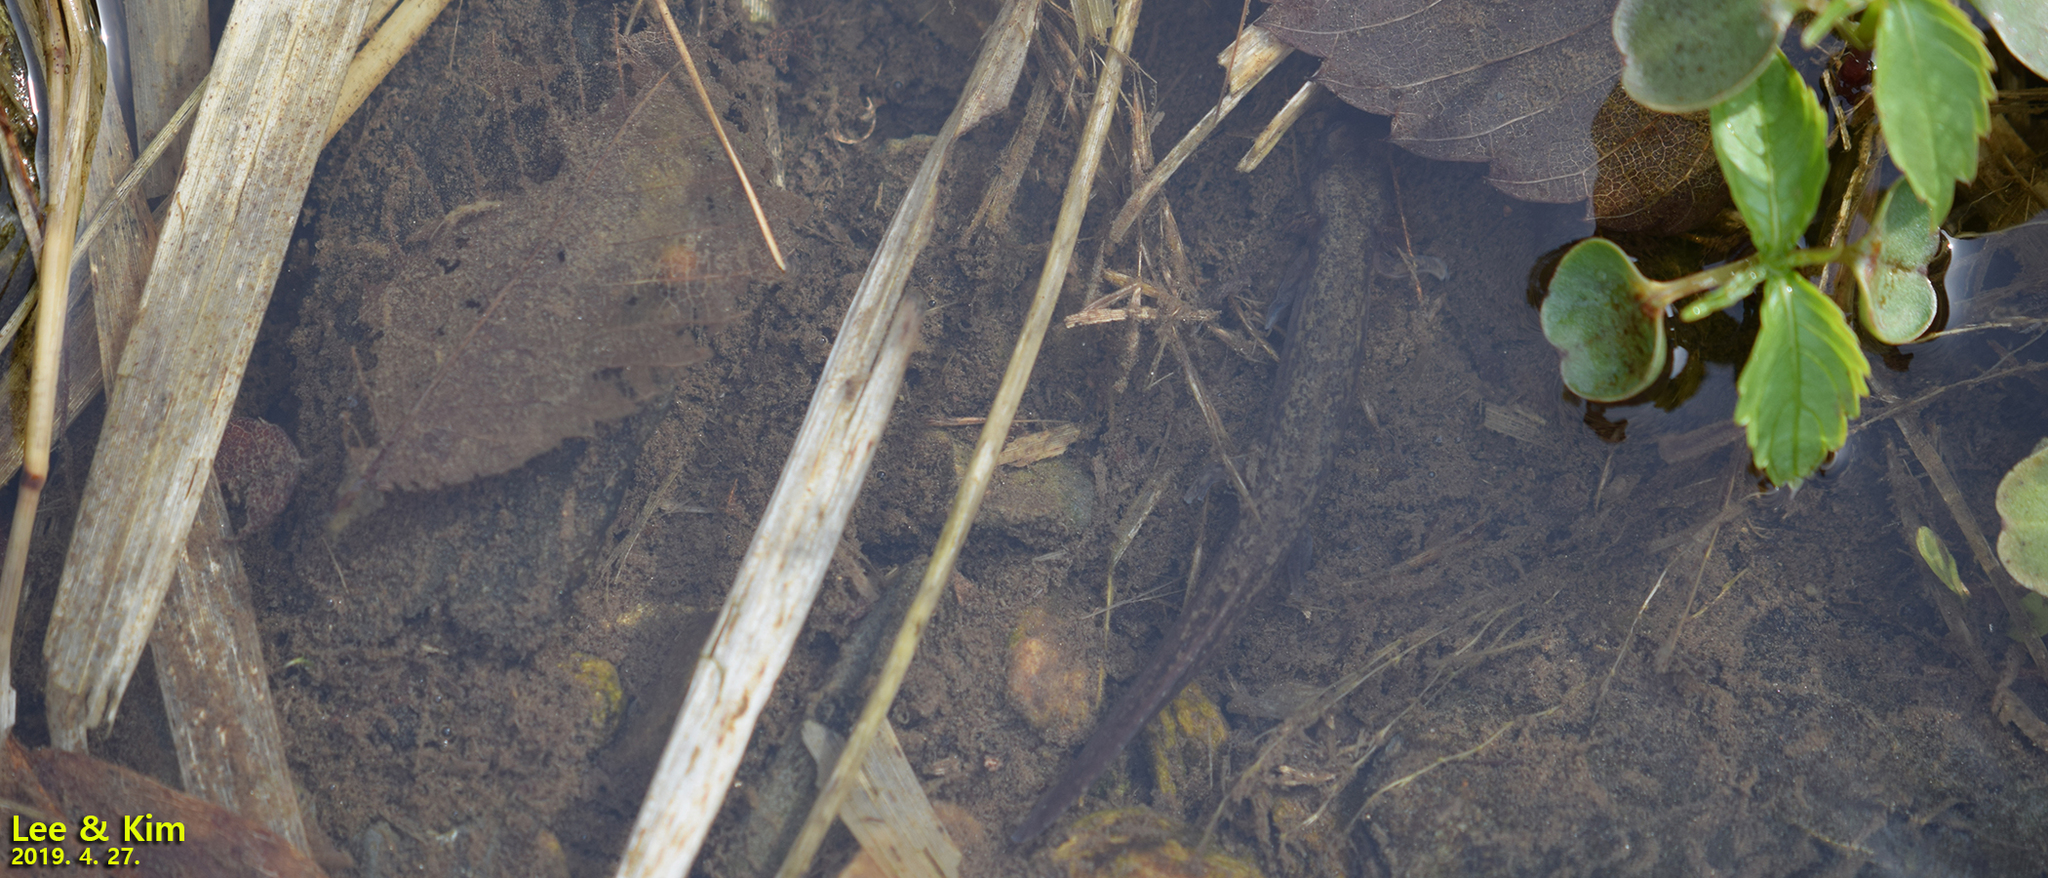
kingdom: Animalia
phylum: Chordata
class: Amphibia
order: Caudata
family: Hynobiidae
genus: Onychodactylus
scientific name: Onychodactylus koreanus
